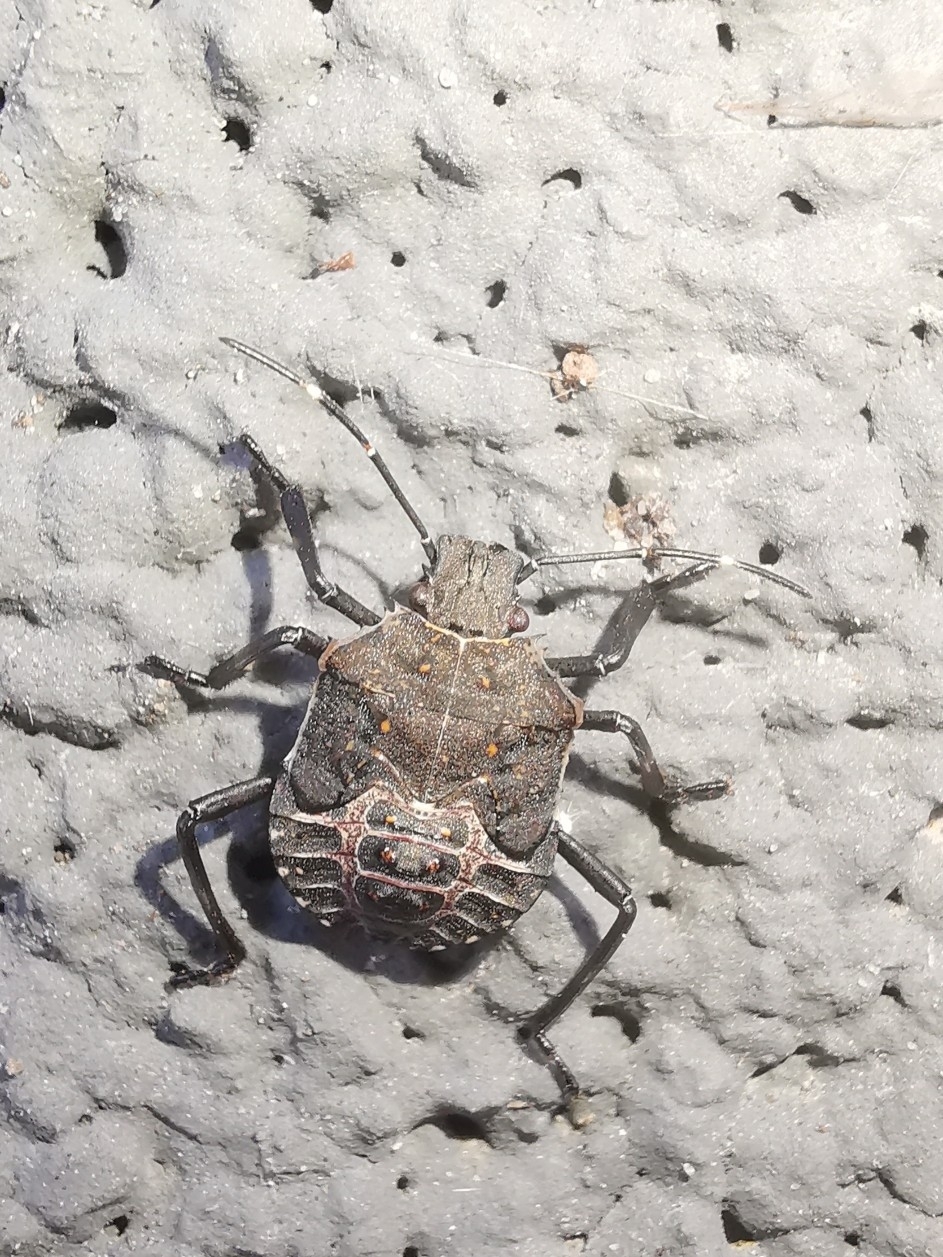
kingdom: Animalia
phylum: Arthropoda
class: Insecta
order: Hemiptera
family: Pentatomidae
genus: Halyomorpha
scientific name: Halyomorpha halys
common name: Brown marmorated stink bug
